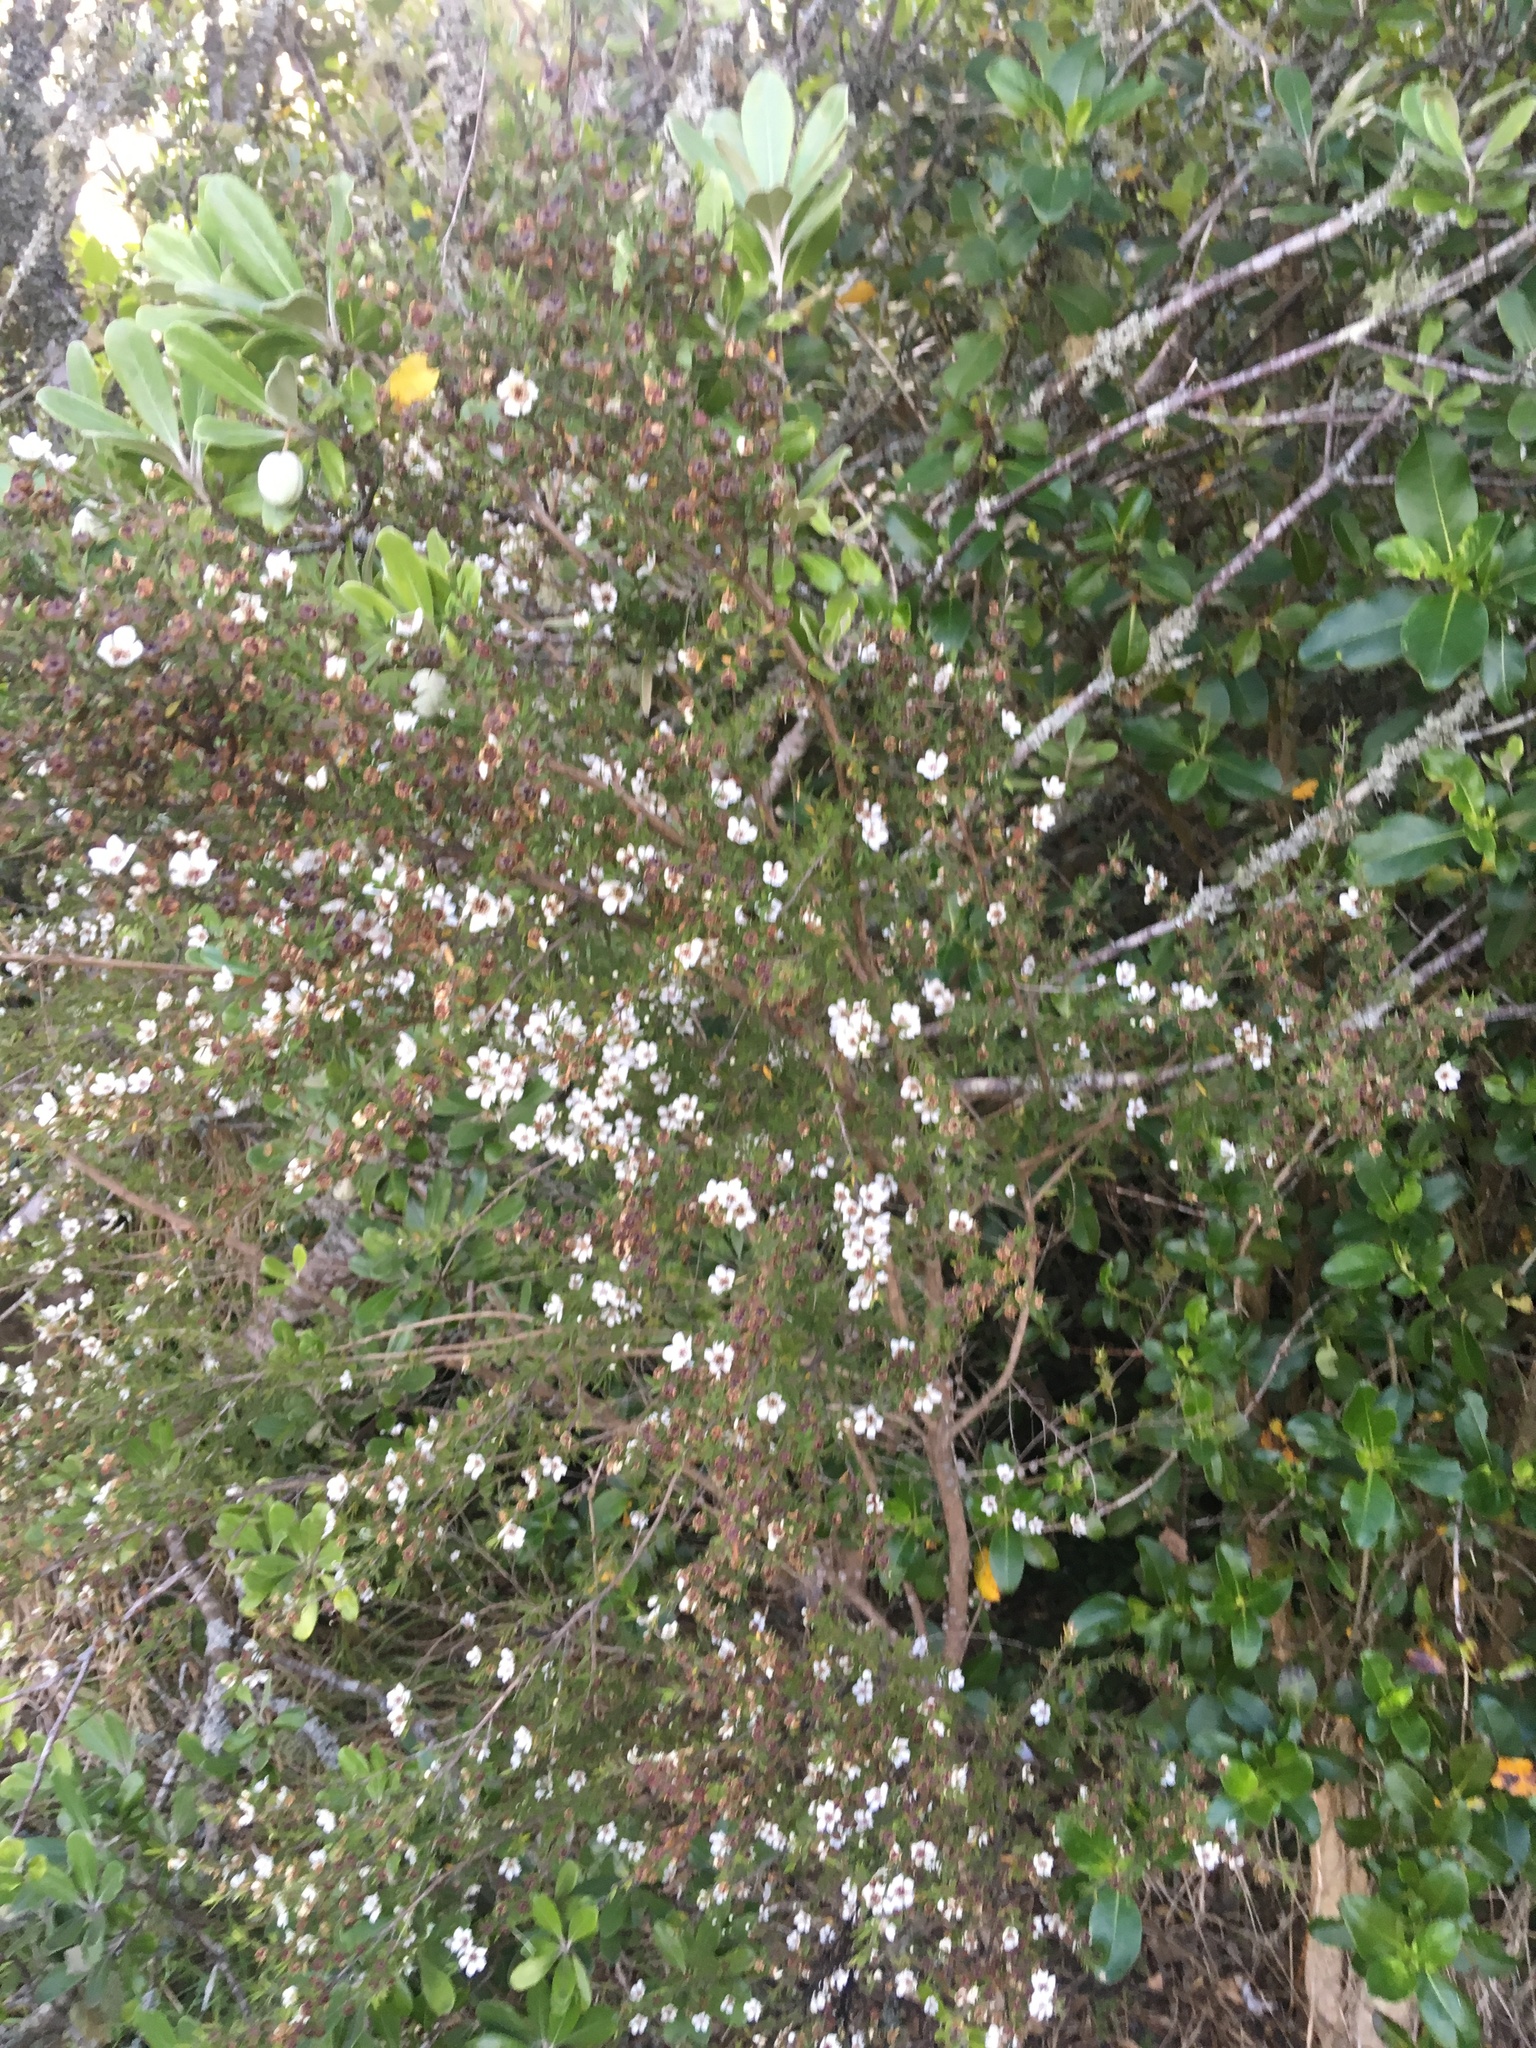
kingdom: Plantae
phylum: Tracheophyta
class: Magnoliopsida
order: Myrtales
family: Myrtaceae
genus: Leptospermum
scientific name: Leptospermum scoparium
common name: Broom tea-tree
